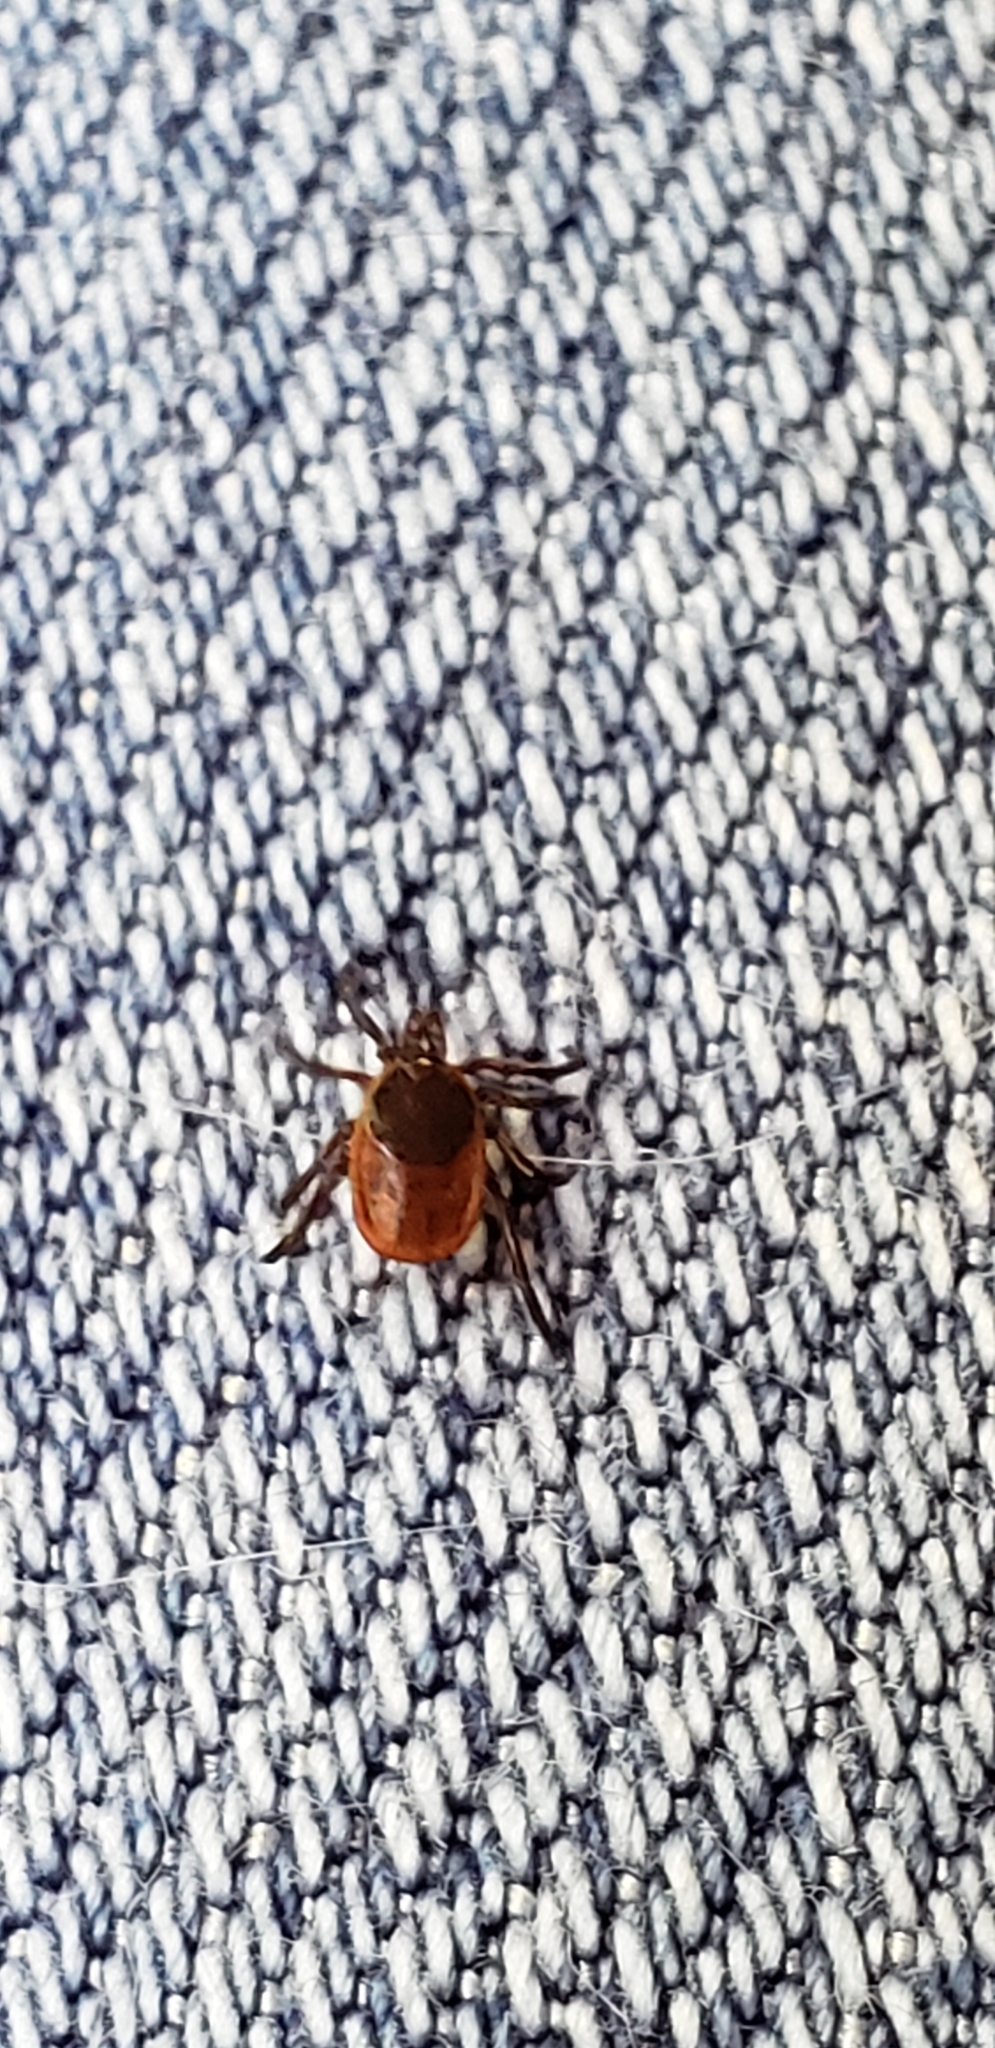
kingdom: Animalia
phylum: Arthropoda
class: Arachnida
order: Ixodida
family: Ixodidae
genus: Ixodes
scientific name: Ixodes scapularis
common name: Black legged tick
